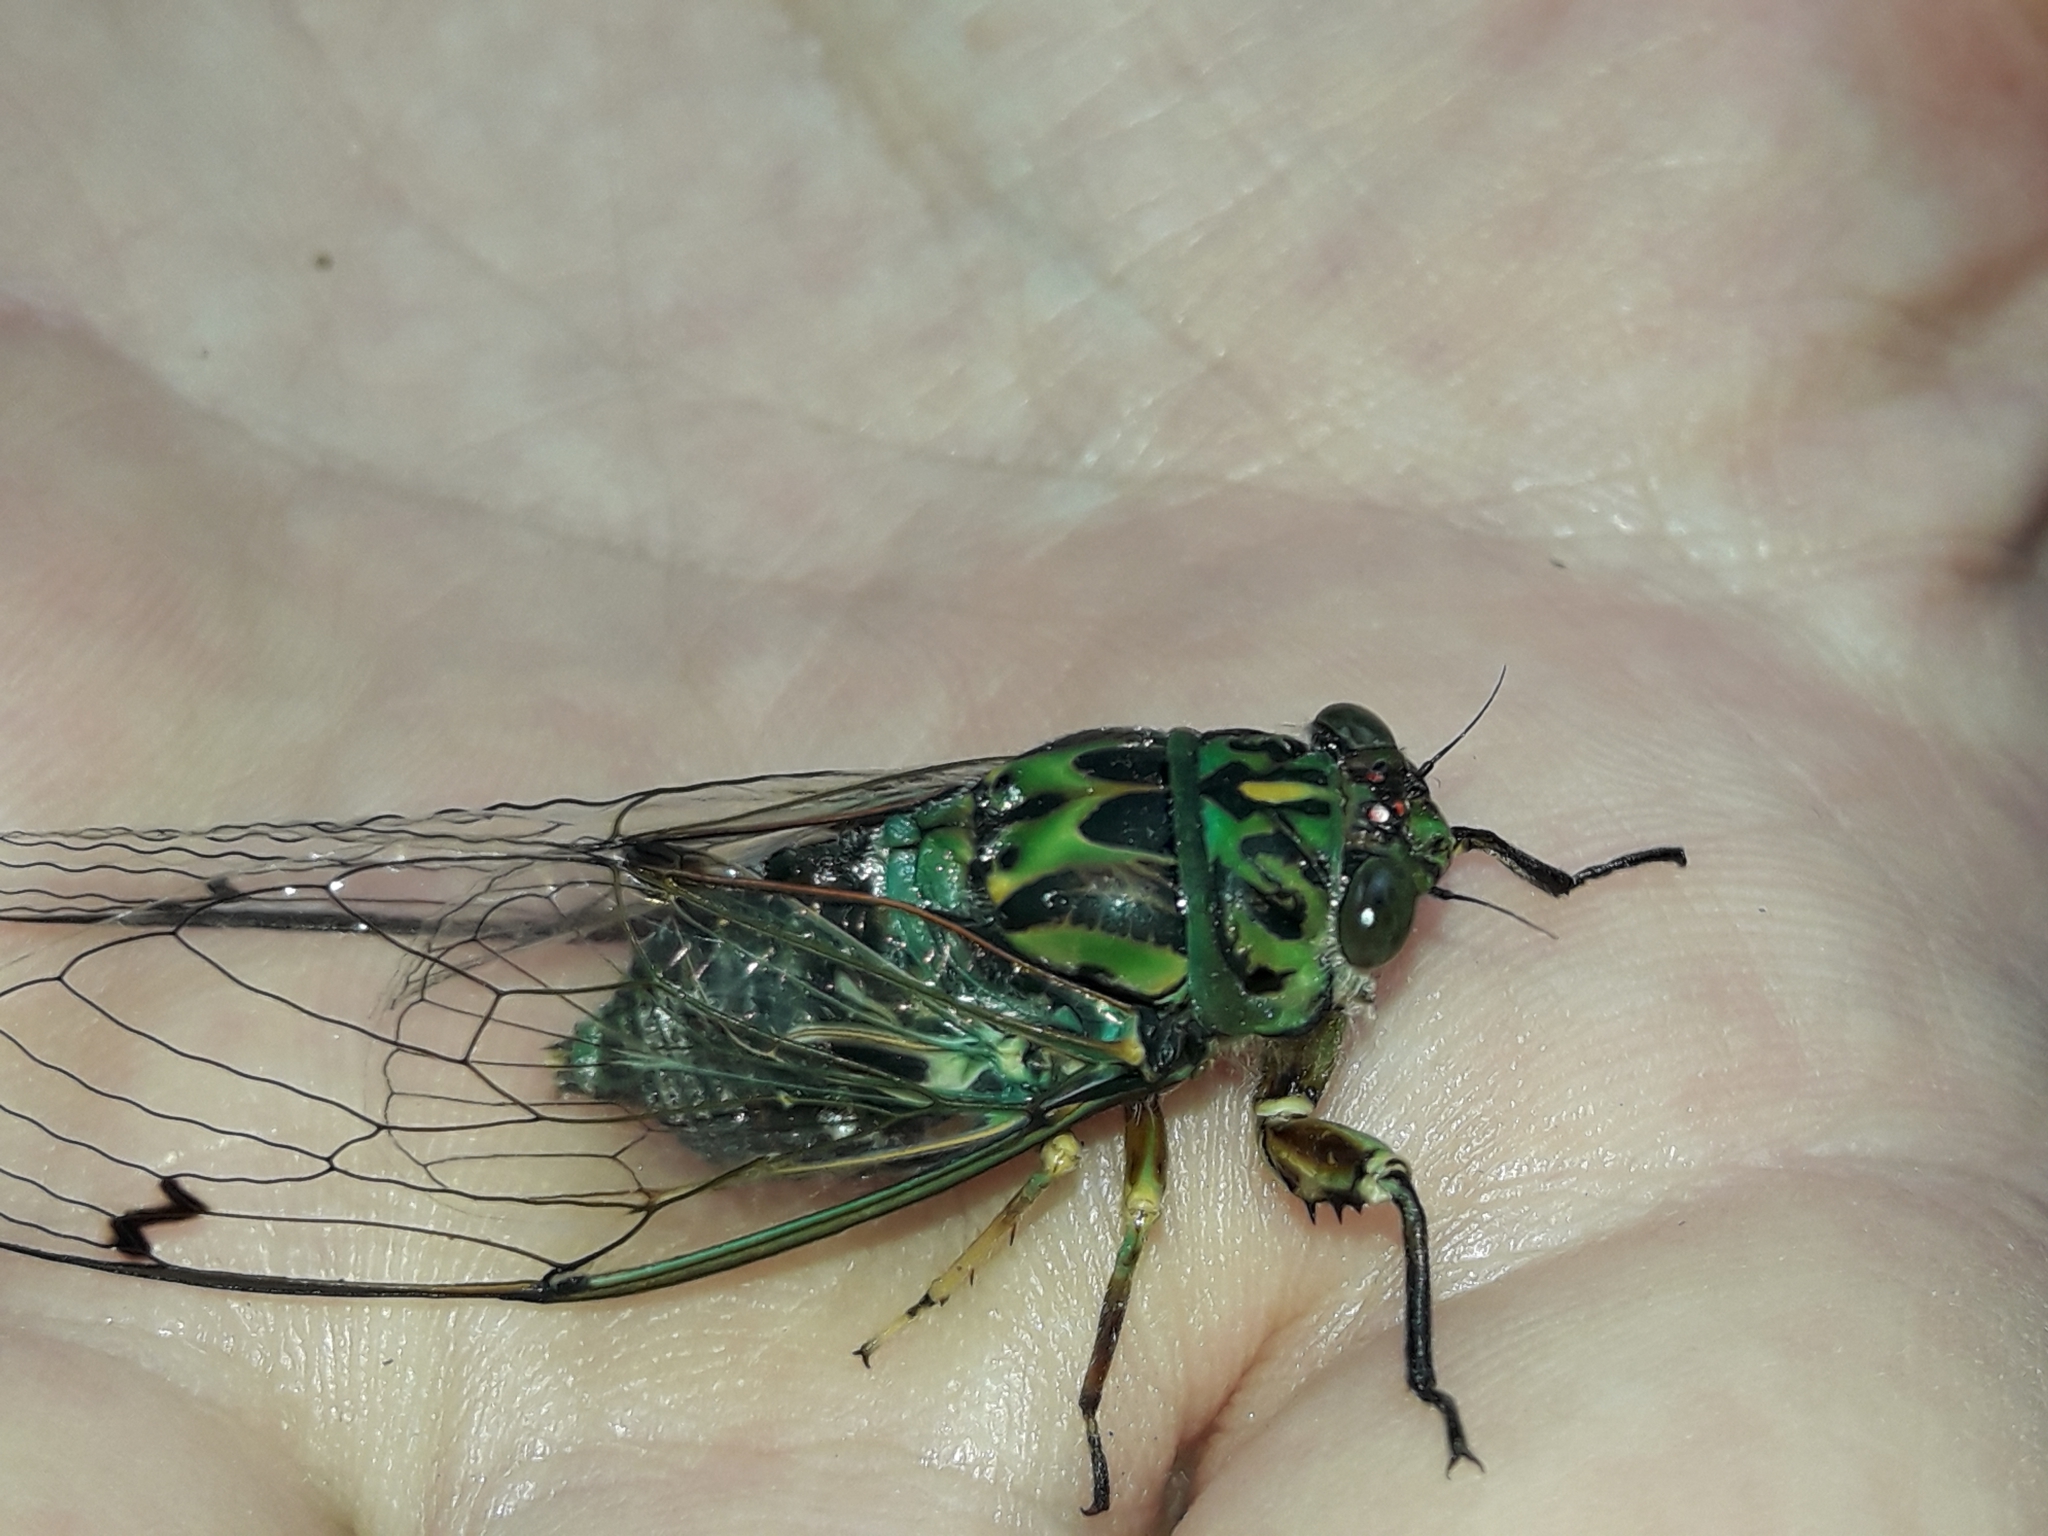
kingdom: Animalia
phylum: Arthropoda
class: Insecta
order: Hemiptera
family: Cicadidae
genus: Amphipsalta
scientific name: Amphipsalta zelandica
